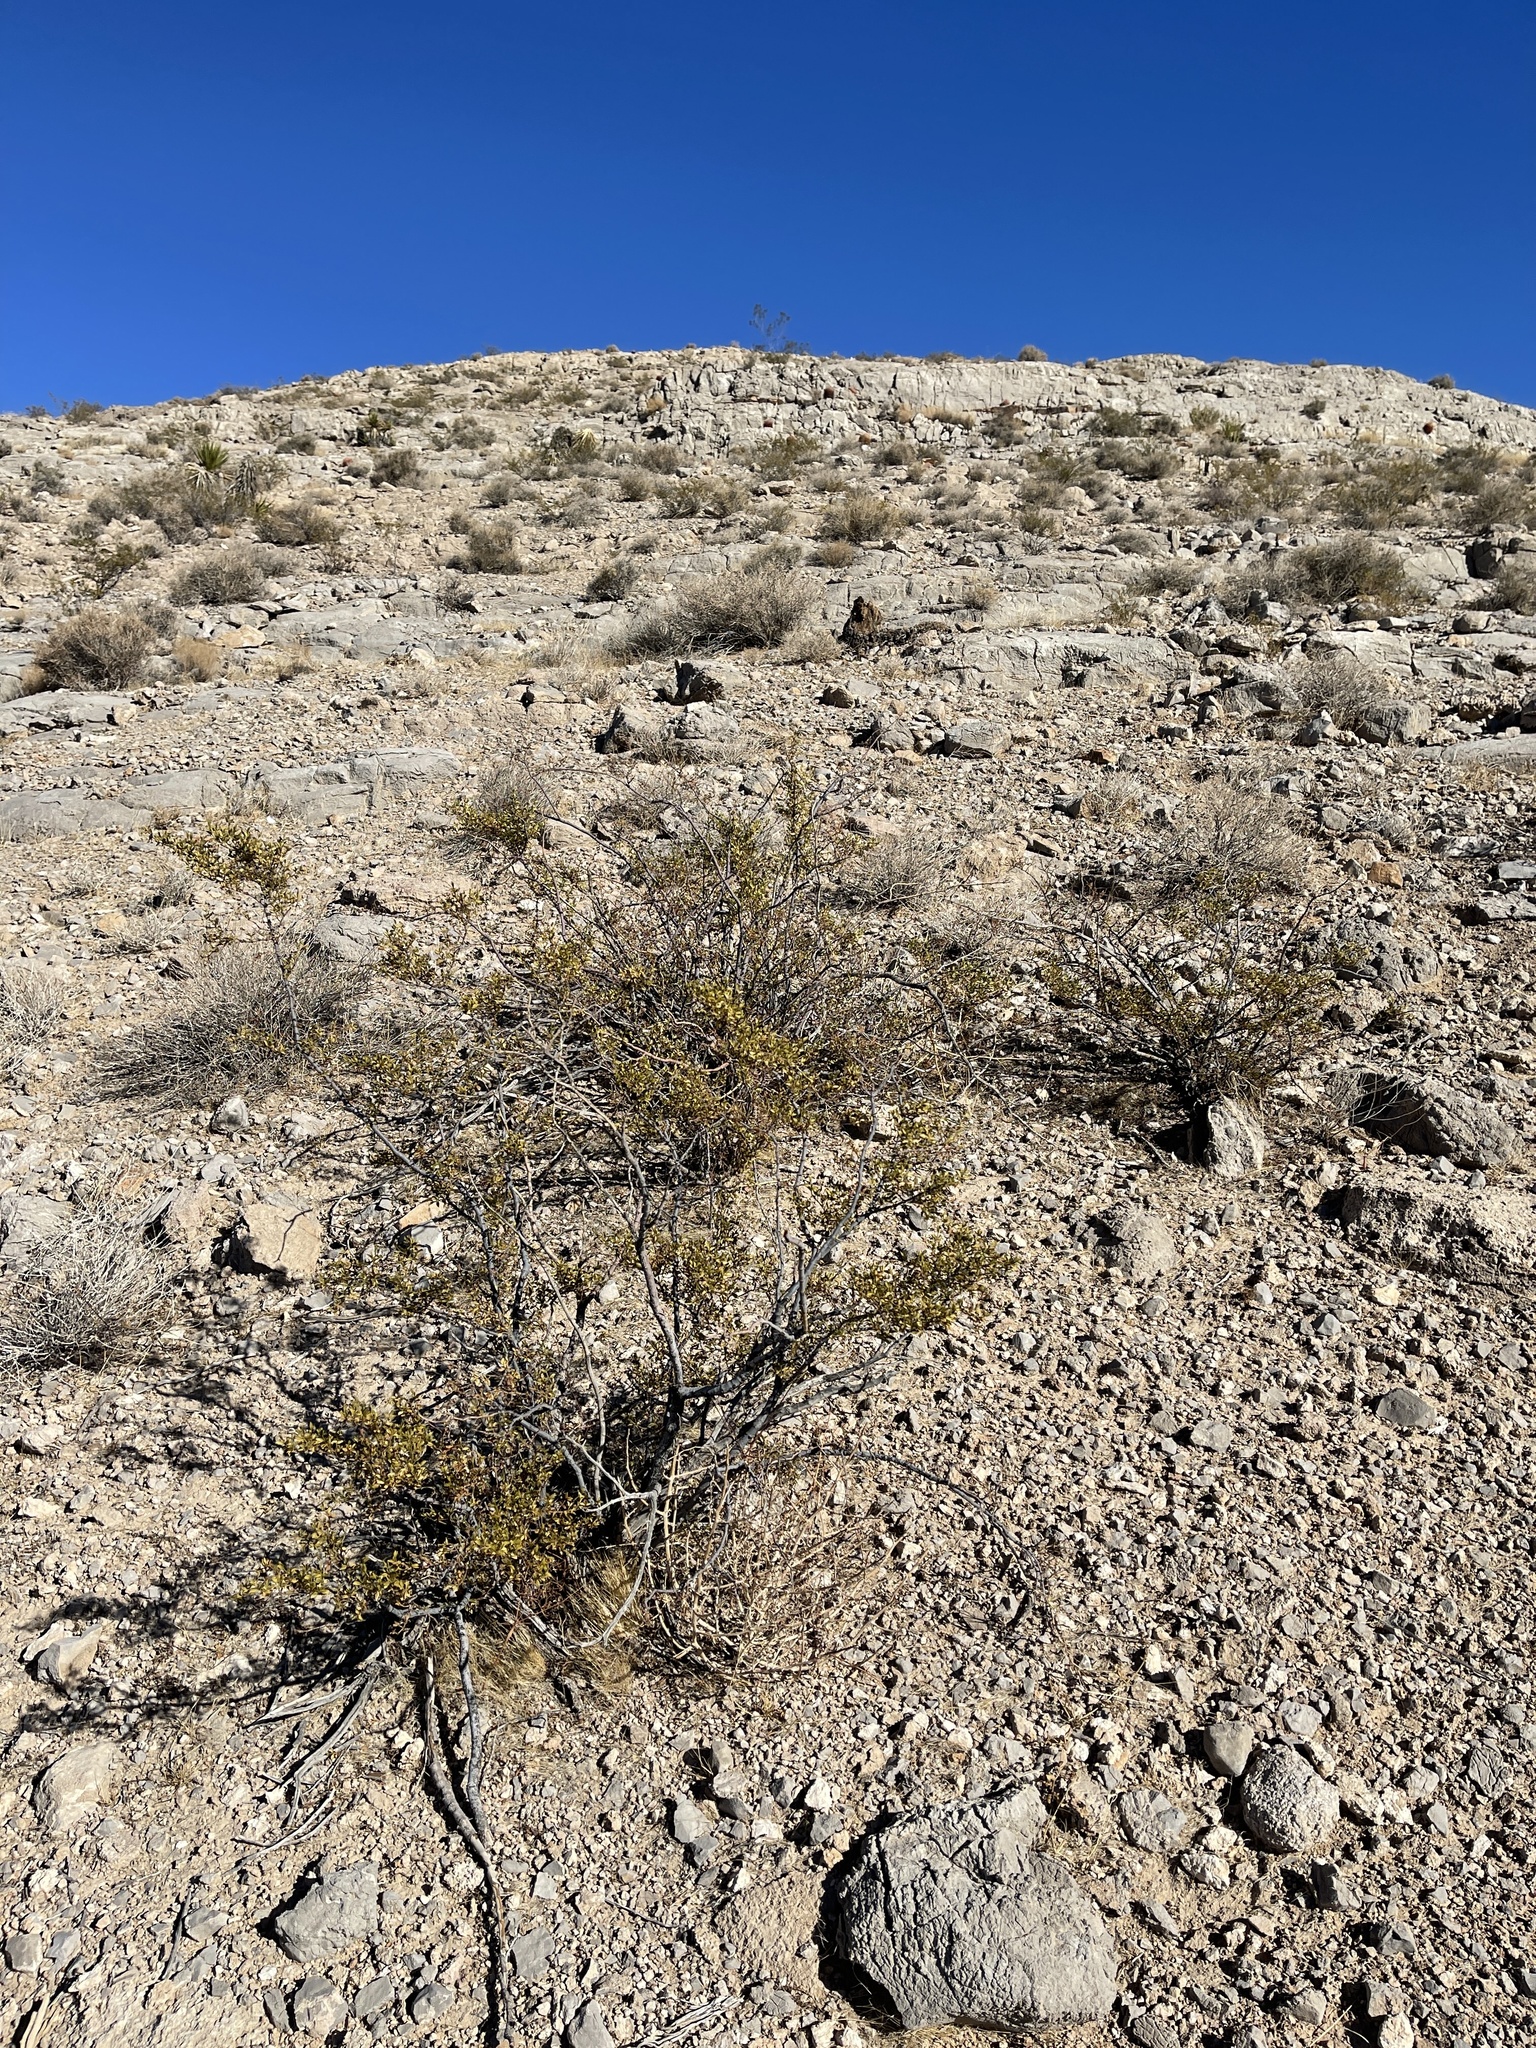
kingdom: Plantae
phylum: Tracheophyta
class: Magnoliopsida
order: Zygophyllales
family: Zygophyllaceae
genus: Larrea
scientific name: Larrea tridentata
